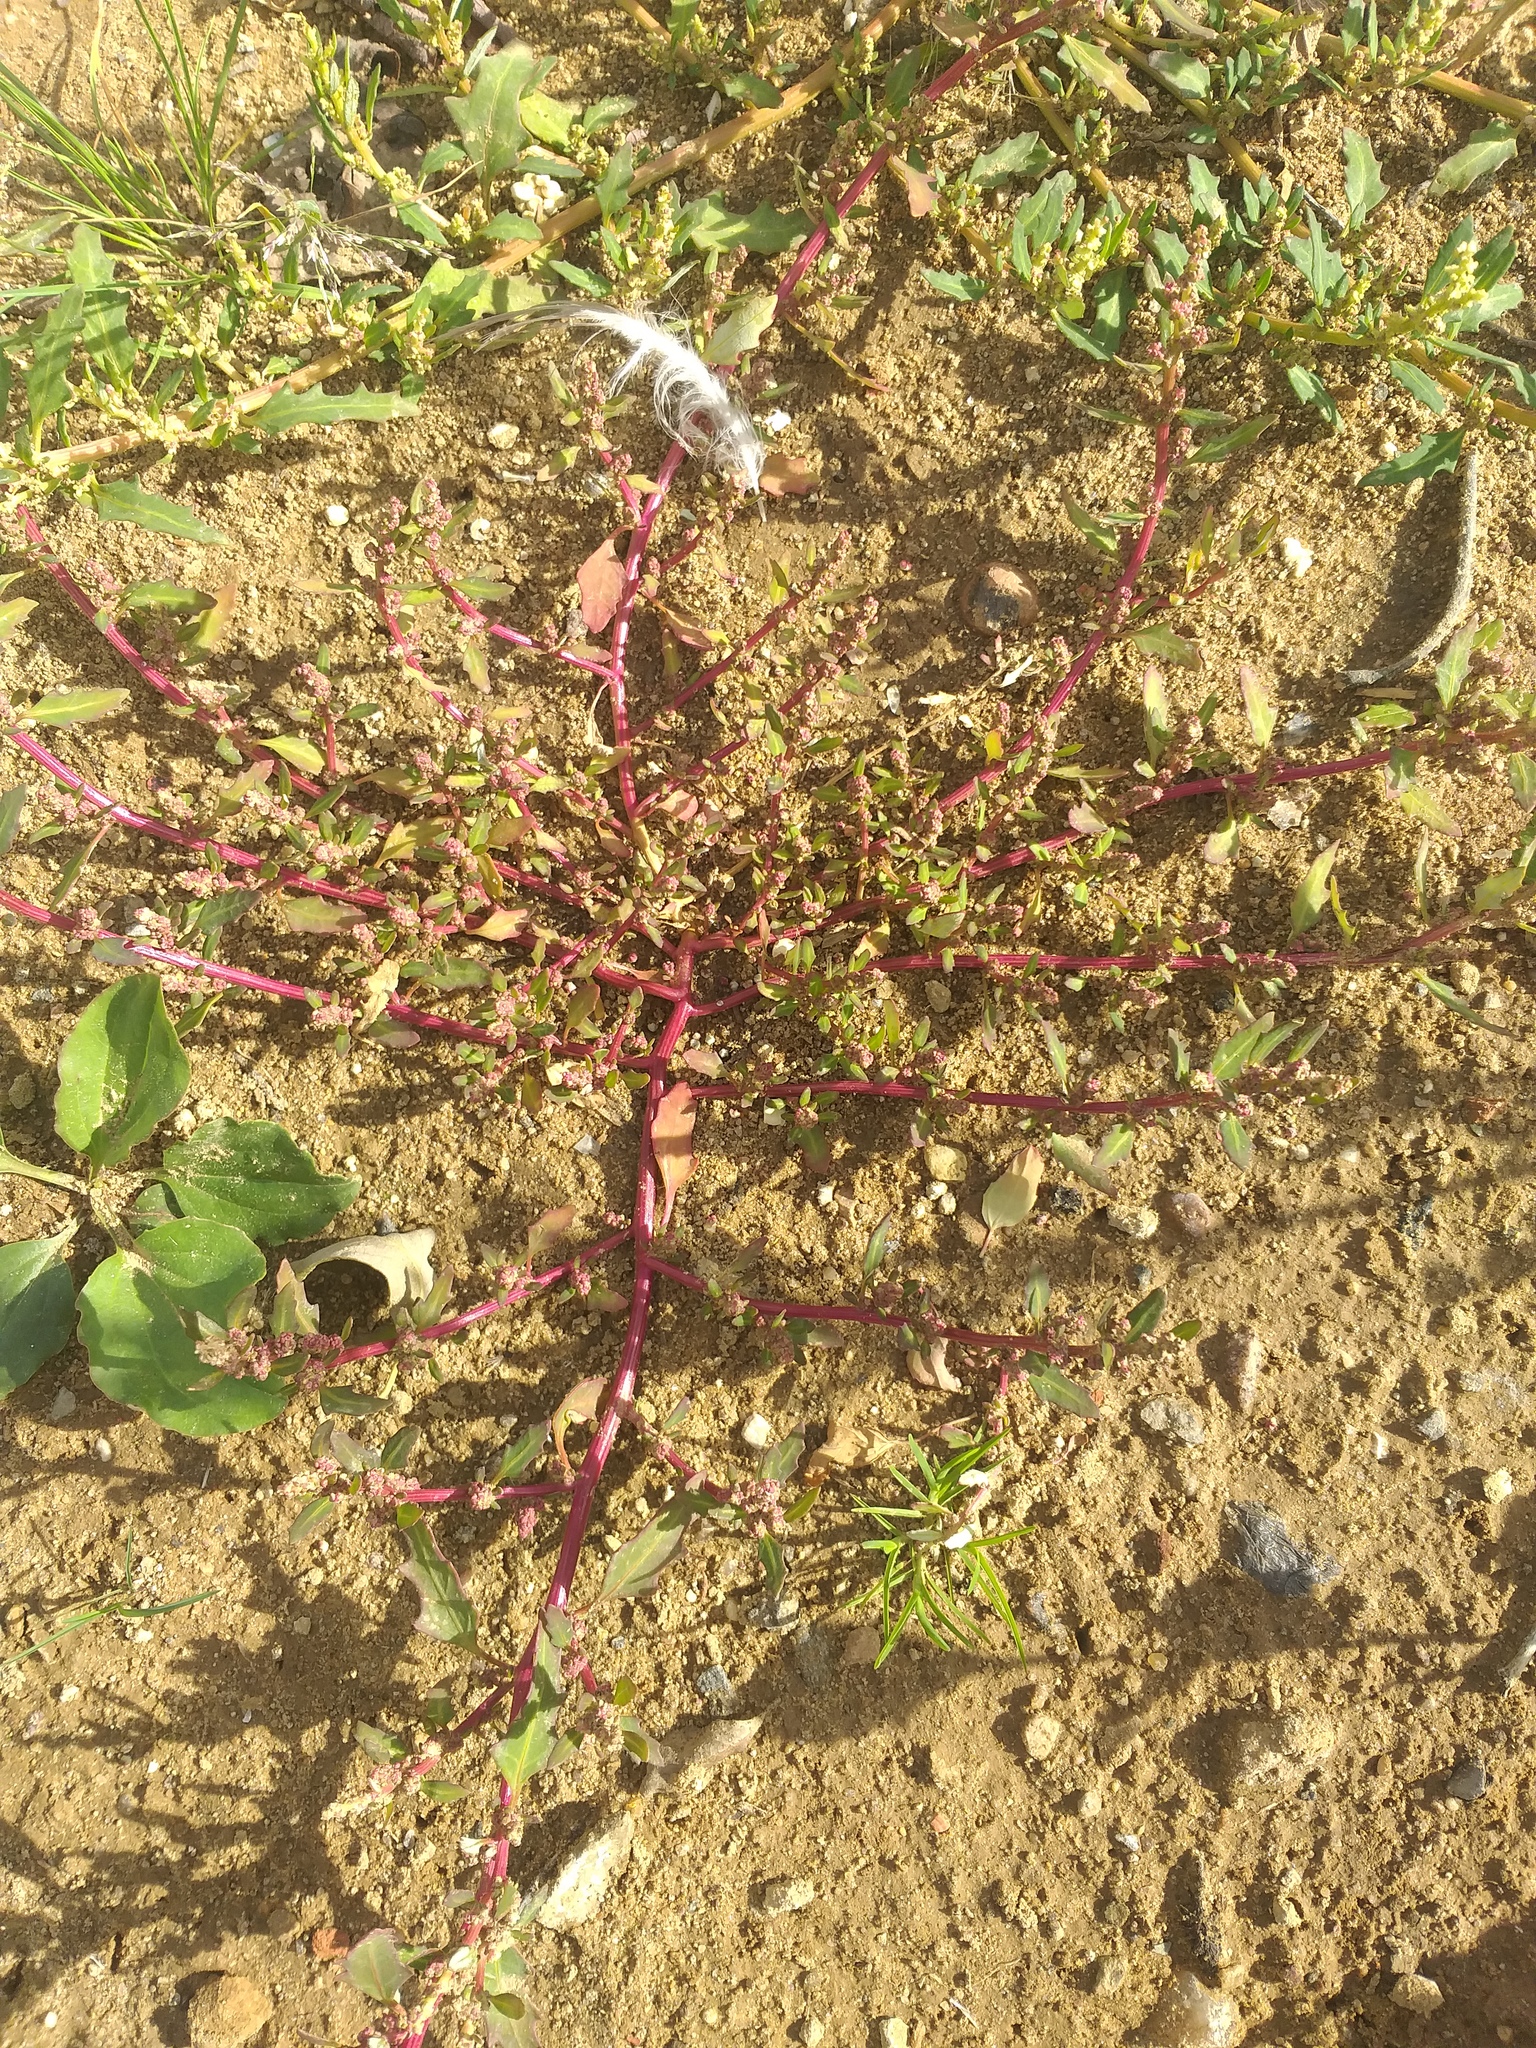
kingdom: Plantae
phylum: Tracheophyta
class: Magnoliopsida
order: Caryophyllales
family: Amaranthaceae
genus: Oxybasis
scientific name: Oxybasis glauca
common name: Glaucous goosefoot
